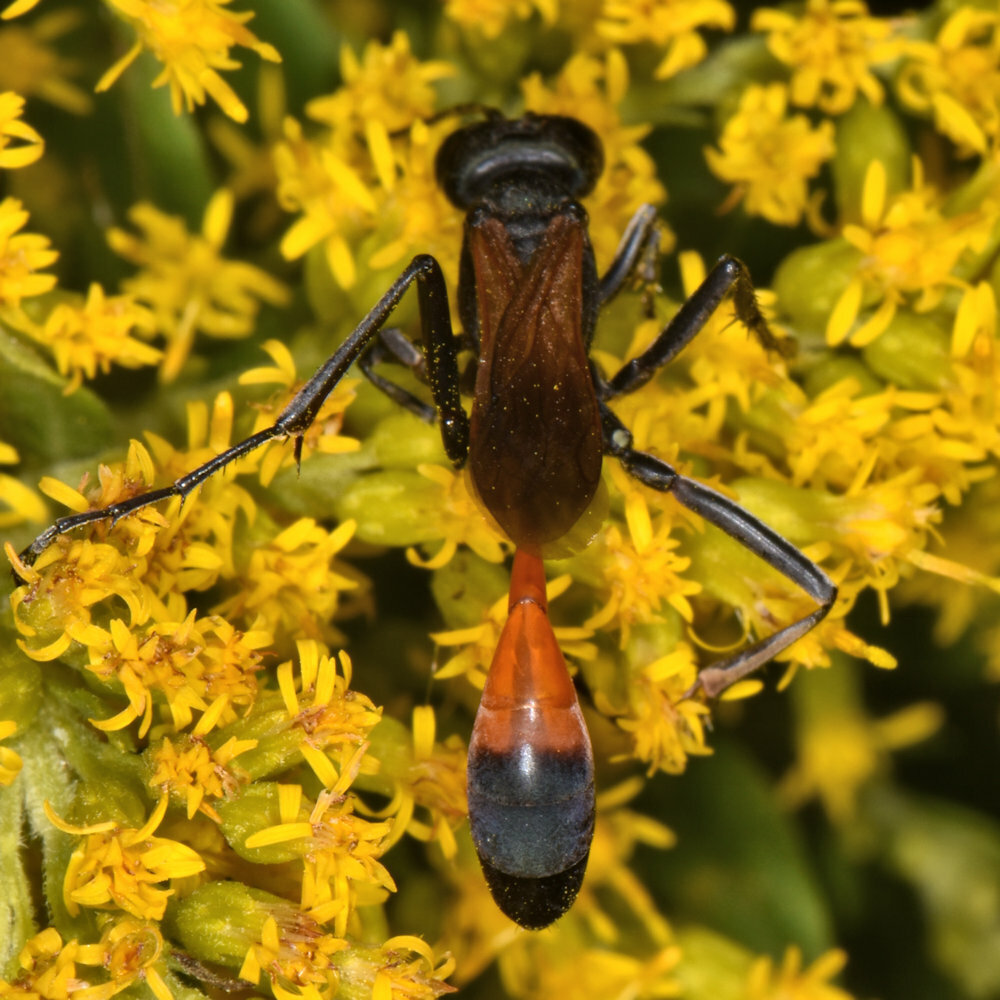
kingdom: Animalia
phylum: Arthropoda
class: Insecta
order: Hymenoptera
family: Sphecidae
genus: Ammophila
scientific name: Ammophila pictipennis
